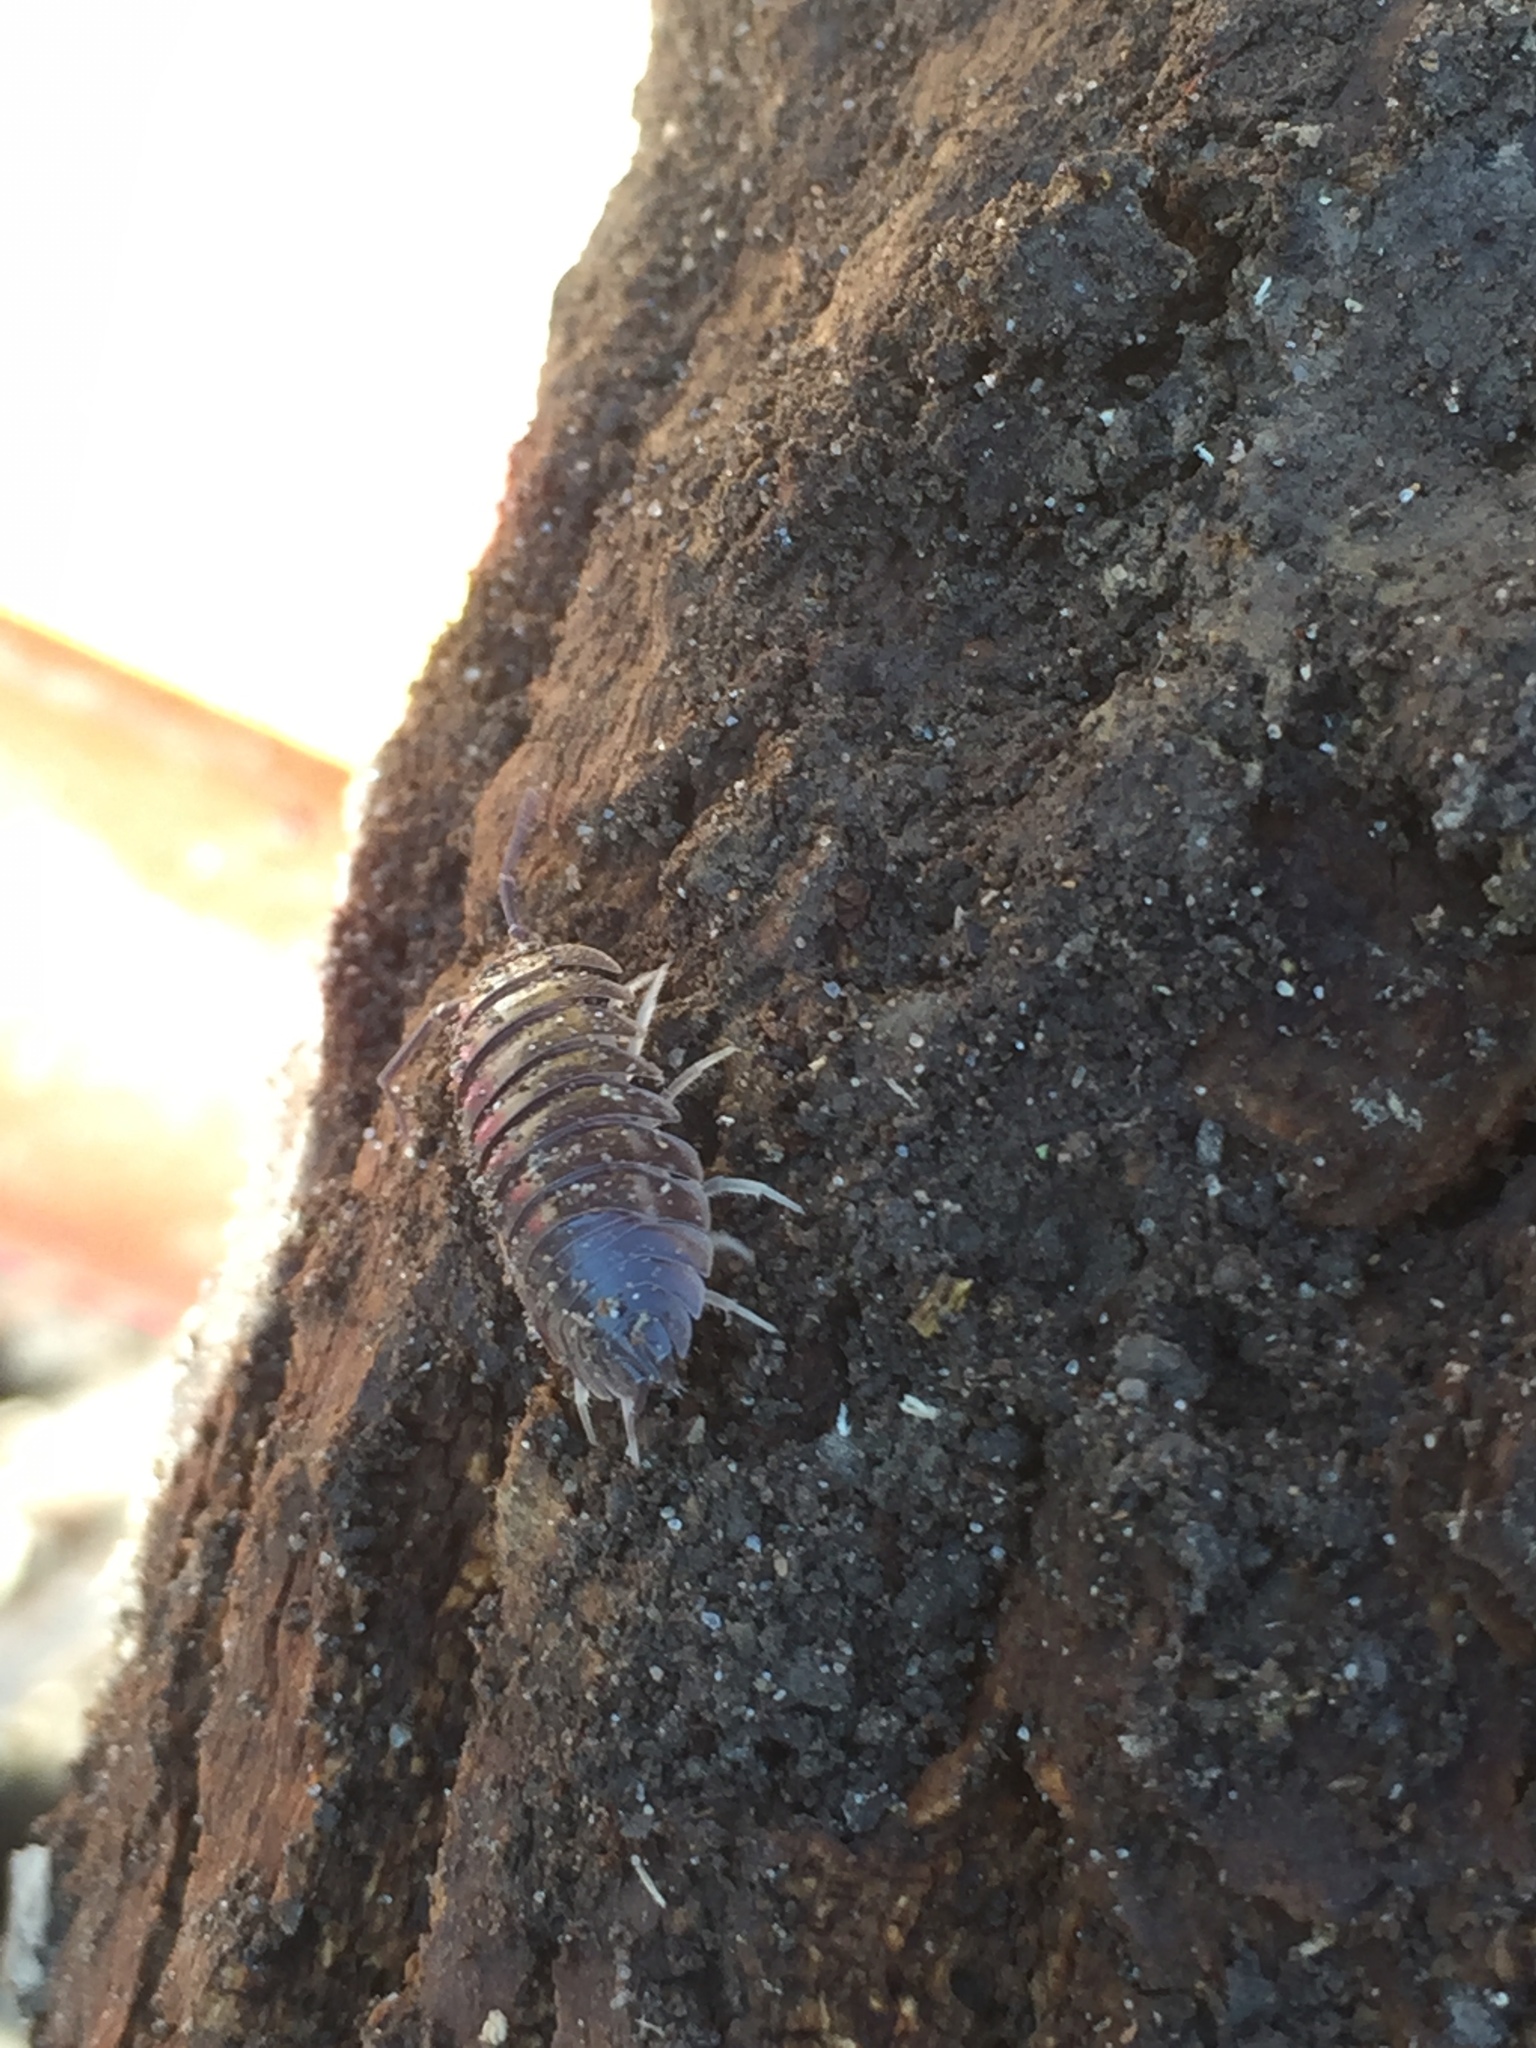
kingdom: Animalia
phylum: Arthropoda
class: Malacostraca
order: Isopoda
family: Cylisticidae
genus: Cylisticus
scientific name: Cylisticus convexus
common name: Curly woodlouse
